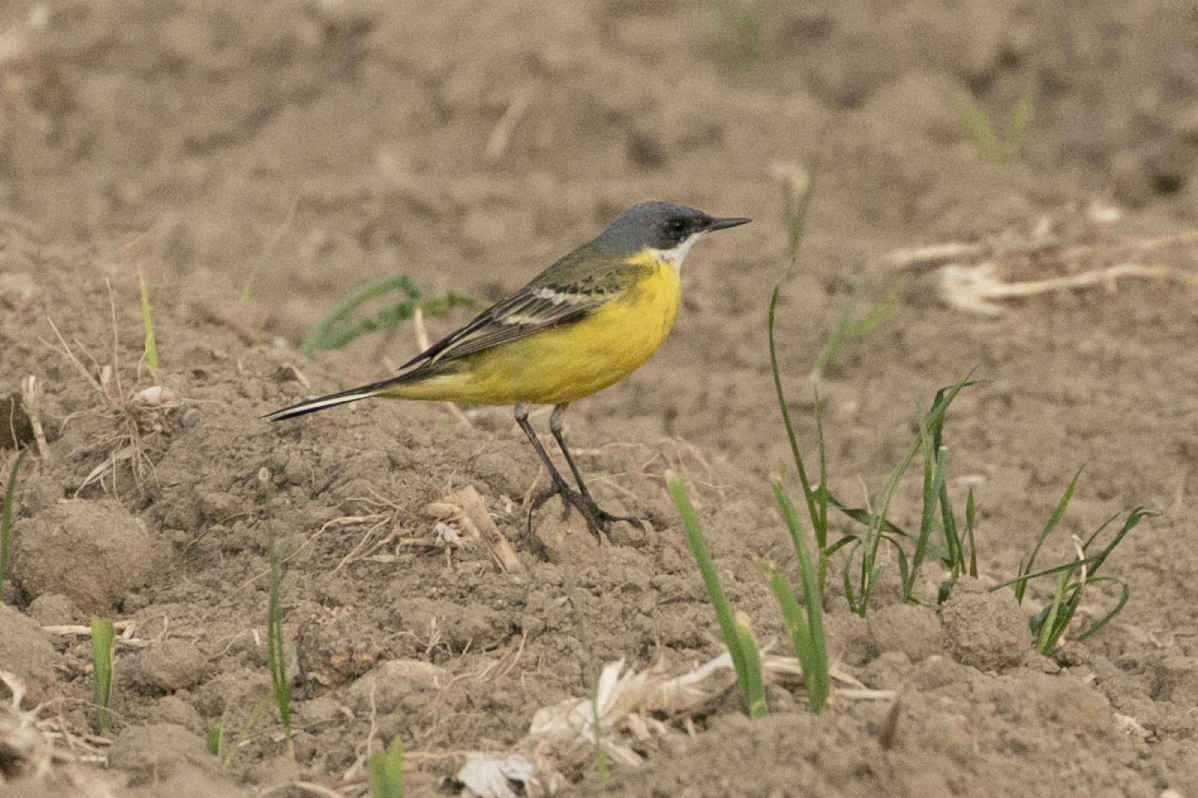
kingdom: Animalia
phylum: Chordata
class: Aves
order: Passeriformes
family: Motacillidae
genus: Motacilla
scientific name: Motacilla flava
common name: Western yellow wagtail
